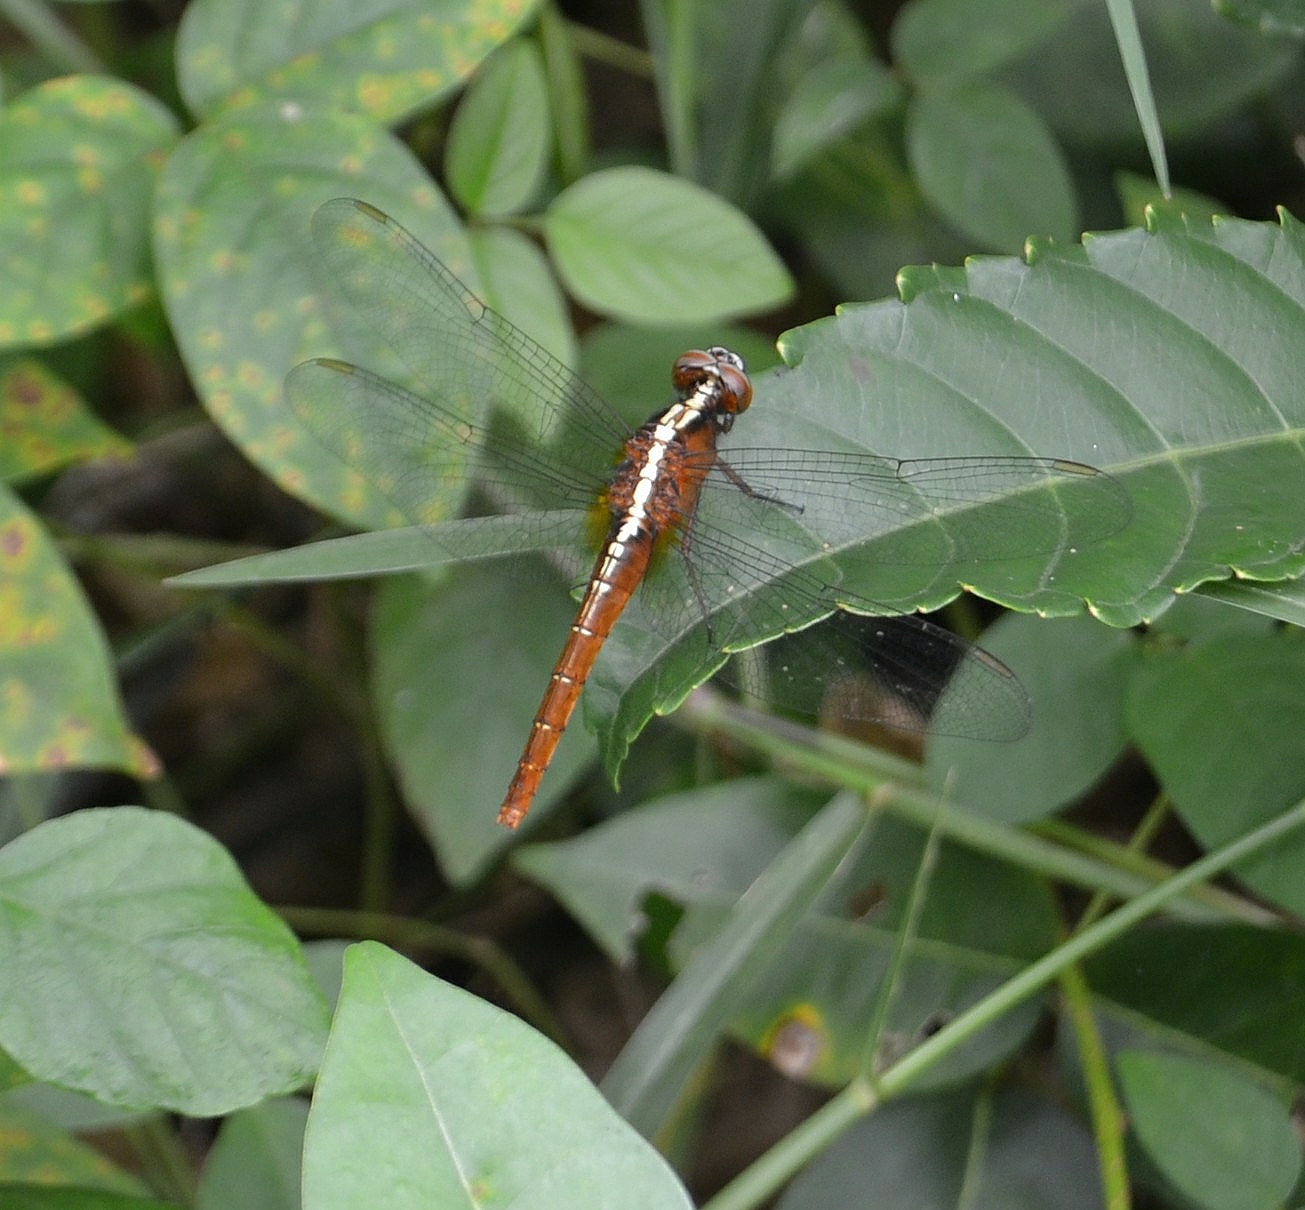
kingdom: Animalia
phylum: Arthropoda
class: Insecta
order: Odonata
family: Libellulidae
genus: Rhodothemis
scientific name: Rhodothemis rufa
